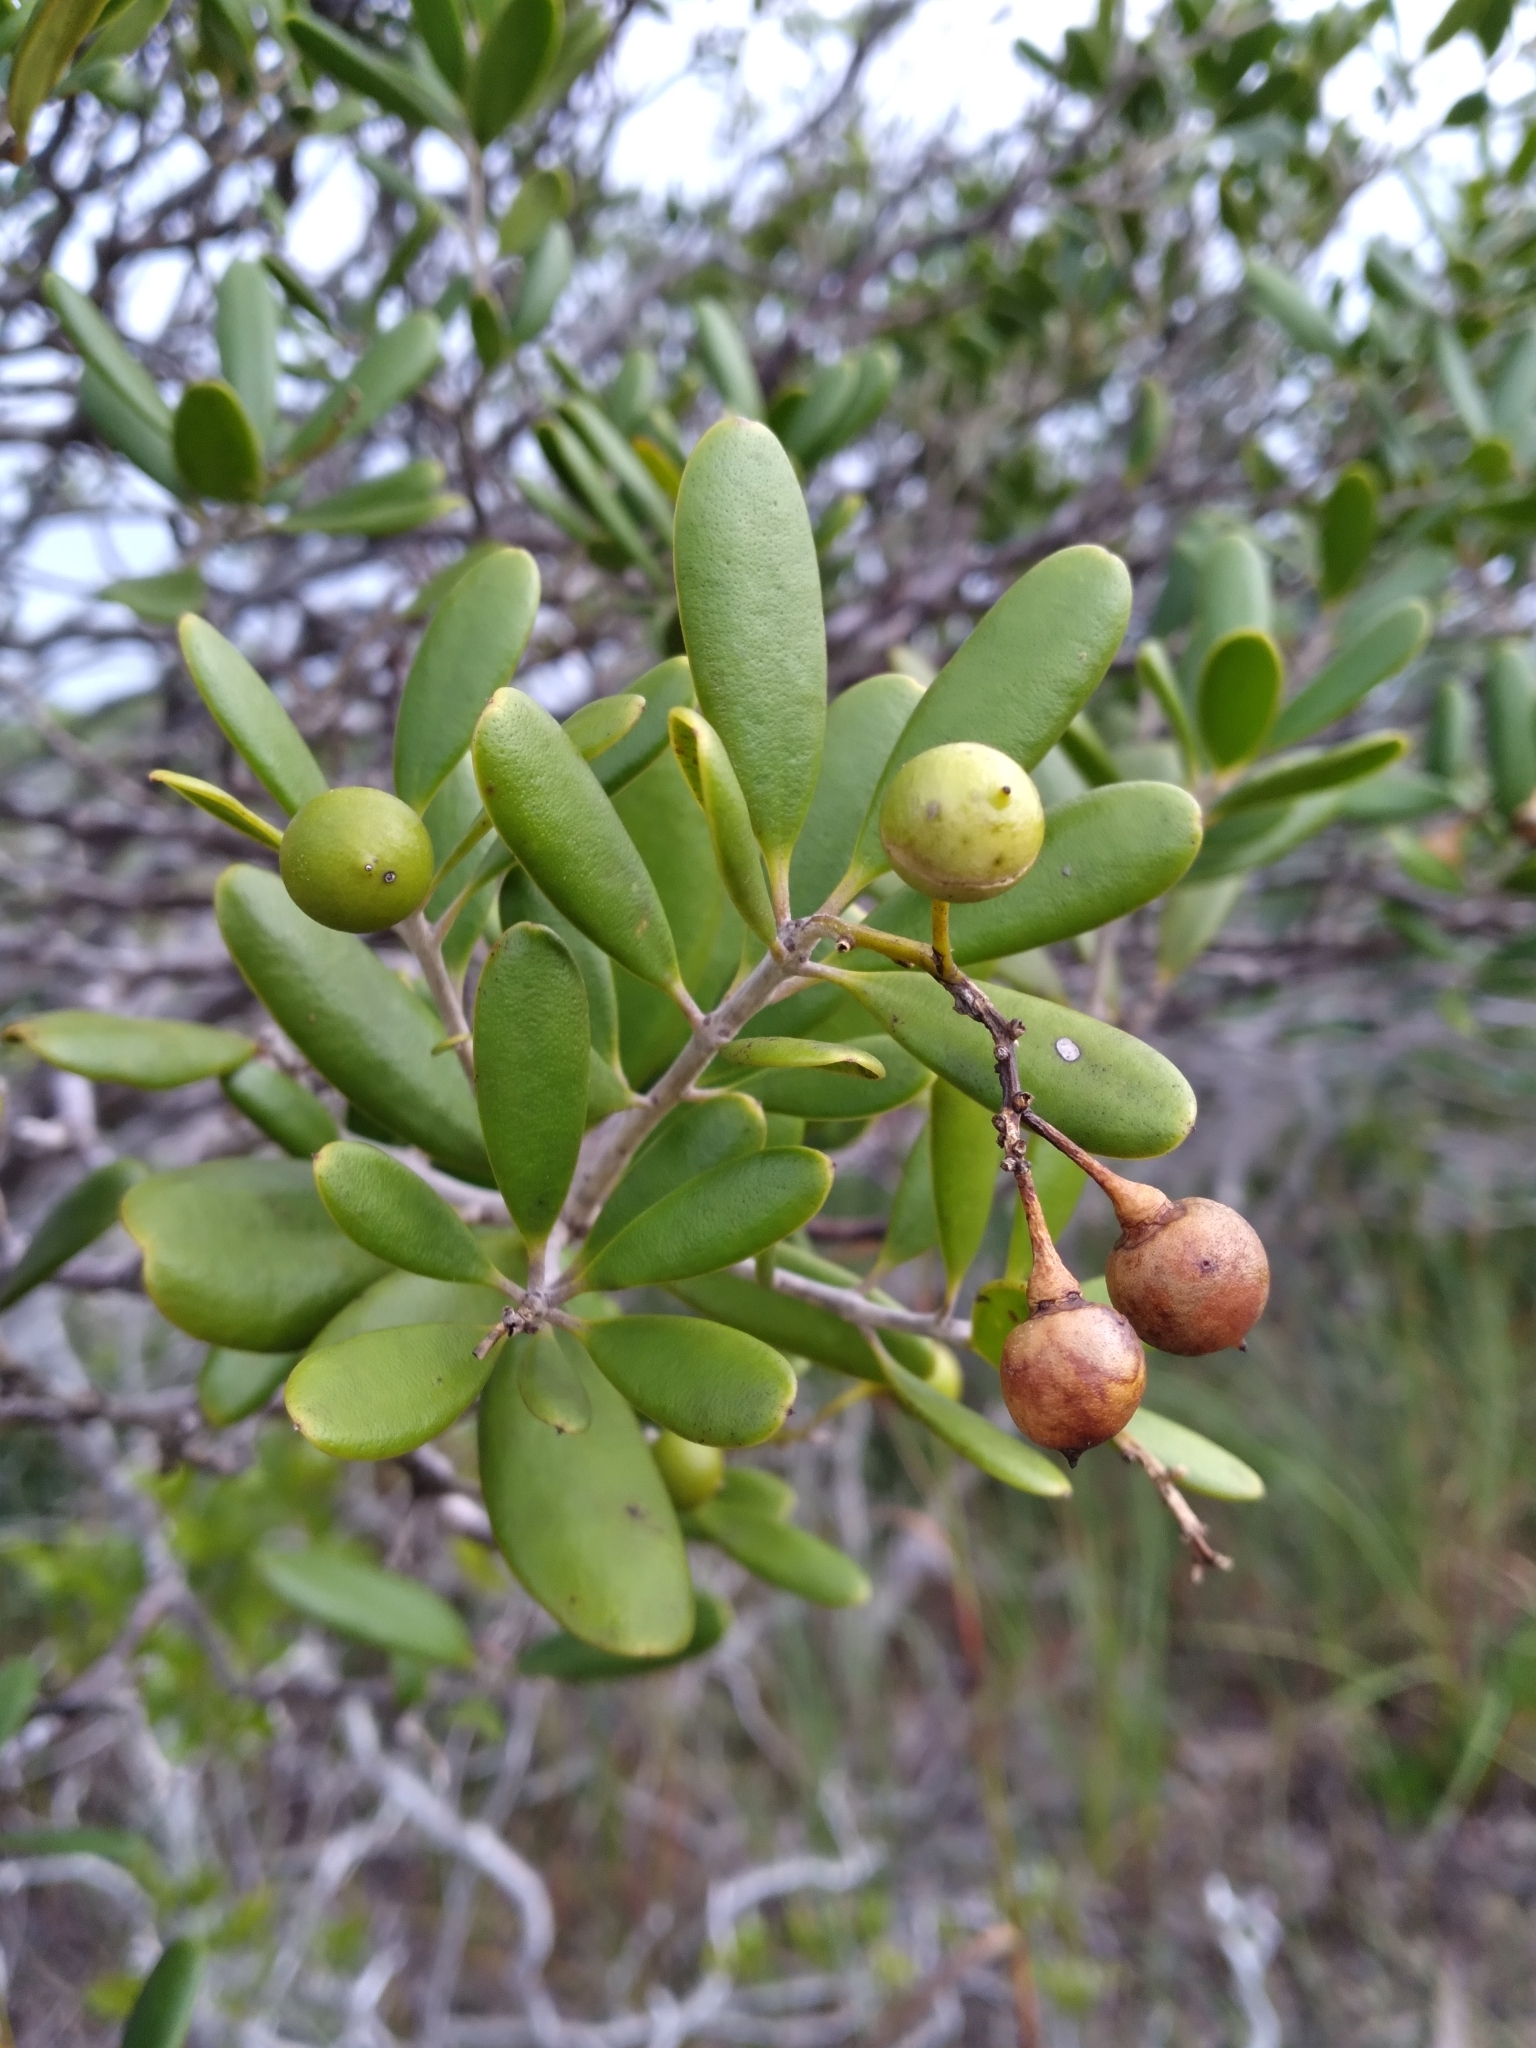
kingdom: Plantae
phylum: Tracheophyta
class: Magnoliopsida
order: Ericales
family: Primulaceae
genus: Jacquinia
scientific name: Jacquinia keyensis
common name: Joebush
